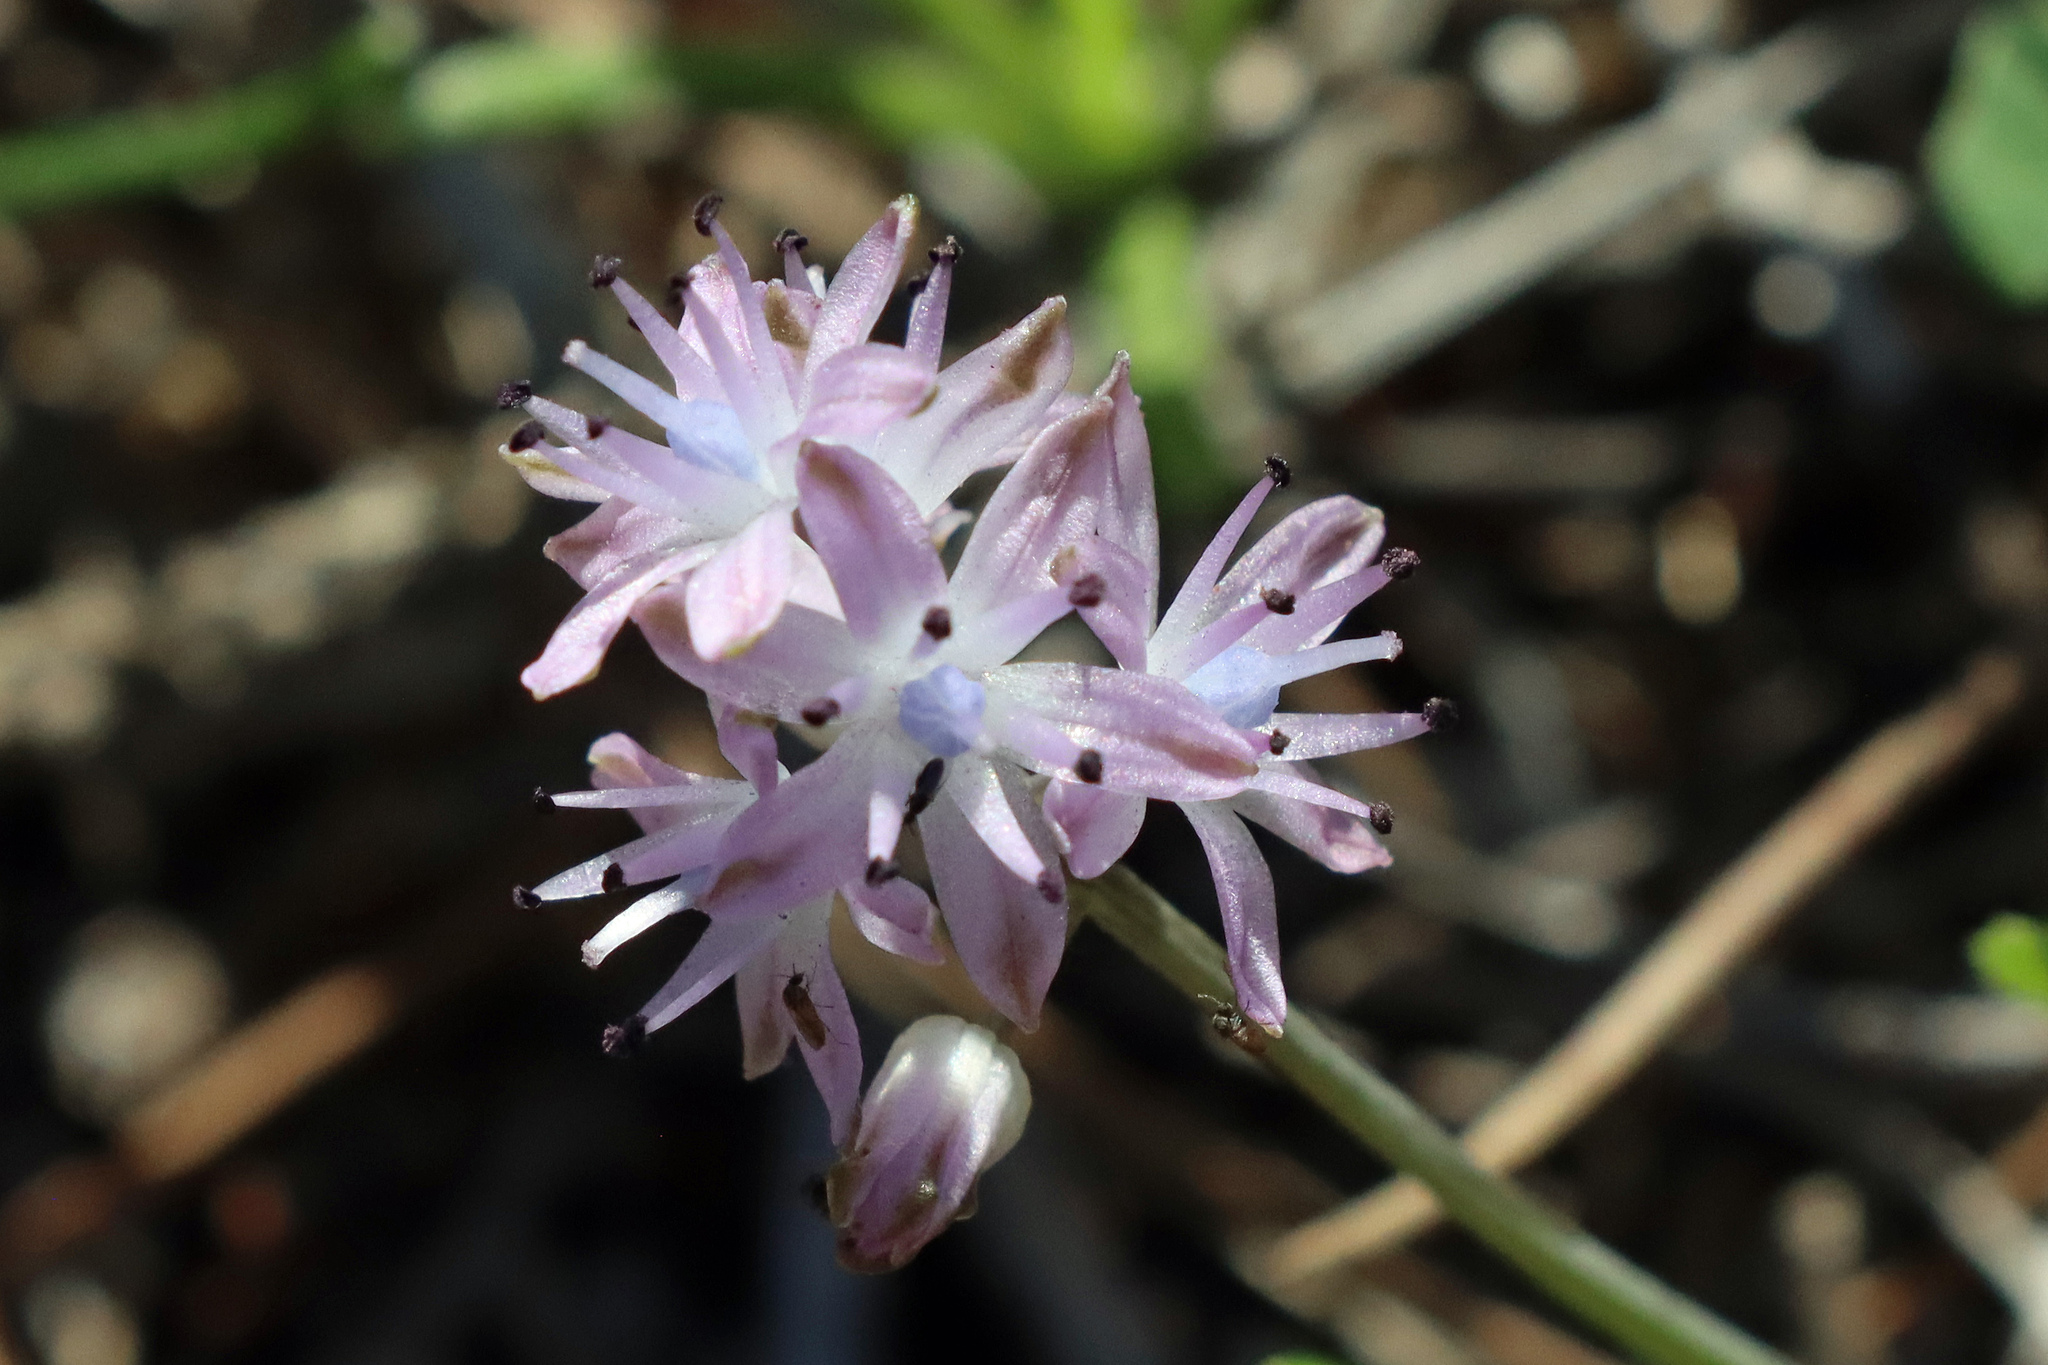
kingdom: Plantae
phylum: Tracheophyta
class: Liliopsida
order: Asparagales
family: Asparagaceae
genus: Prospero
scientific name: Prospero autumnale
